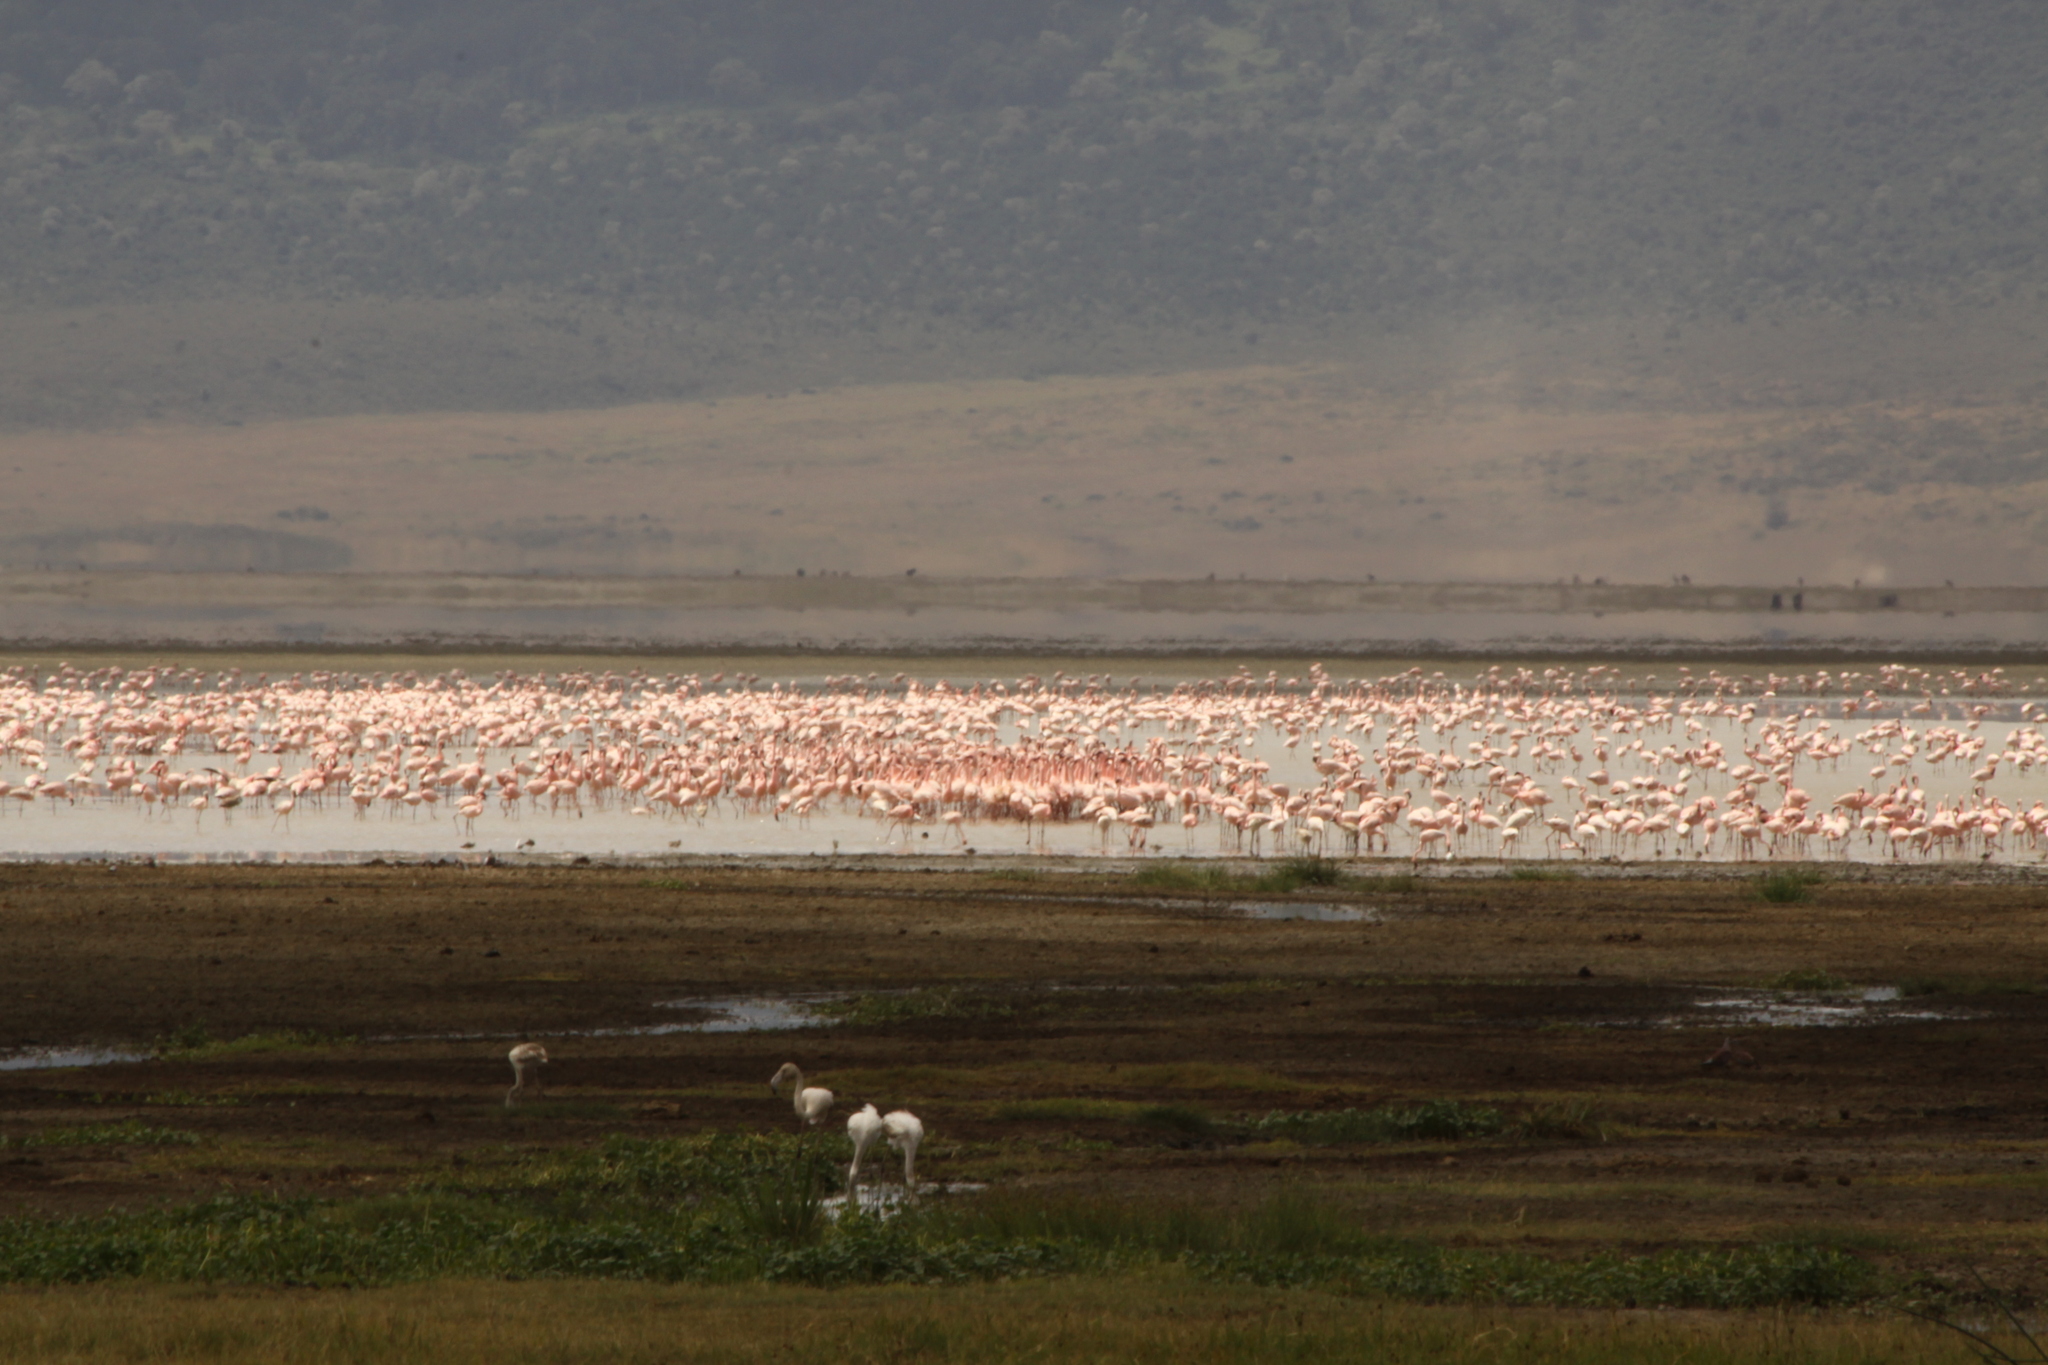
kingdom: Animalia
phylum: Chordata
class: Aves
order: Phoenicopteriformes
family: Phoenicopteridae
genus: Phoeniconaias
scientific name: Phoeniconaias minor
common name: Lesser flamingo
